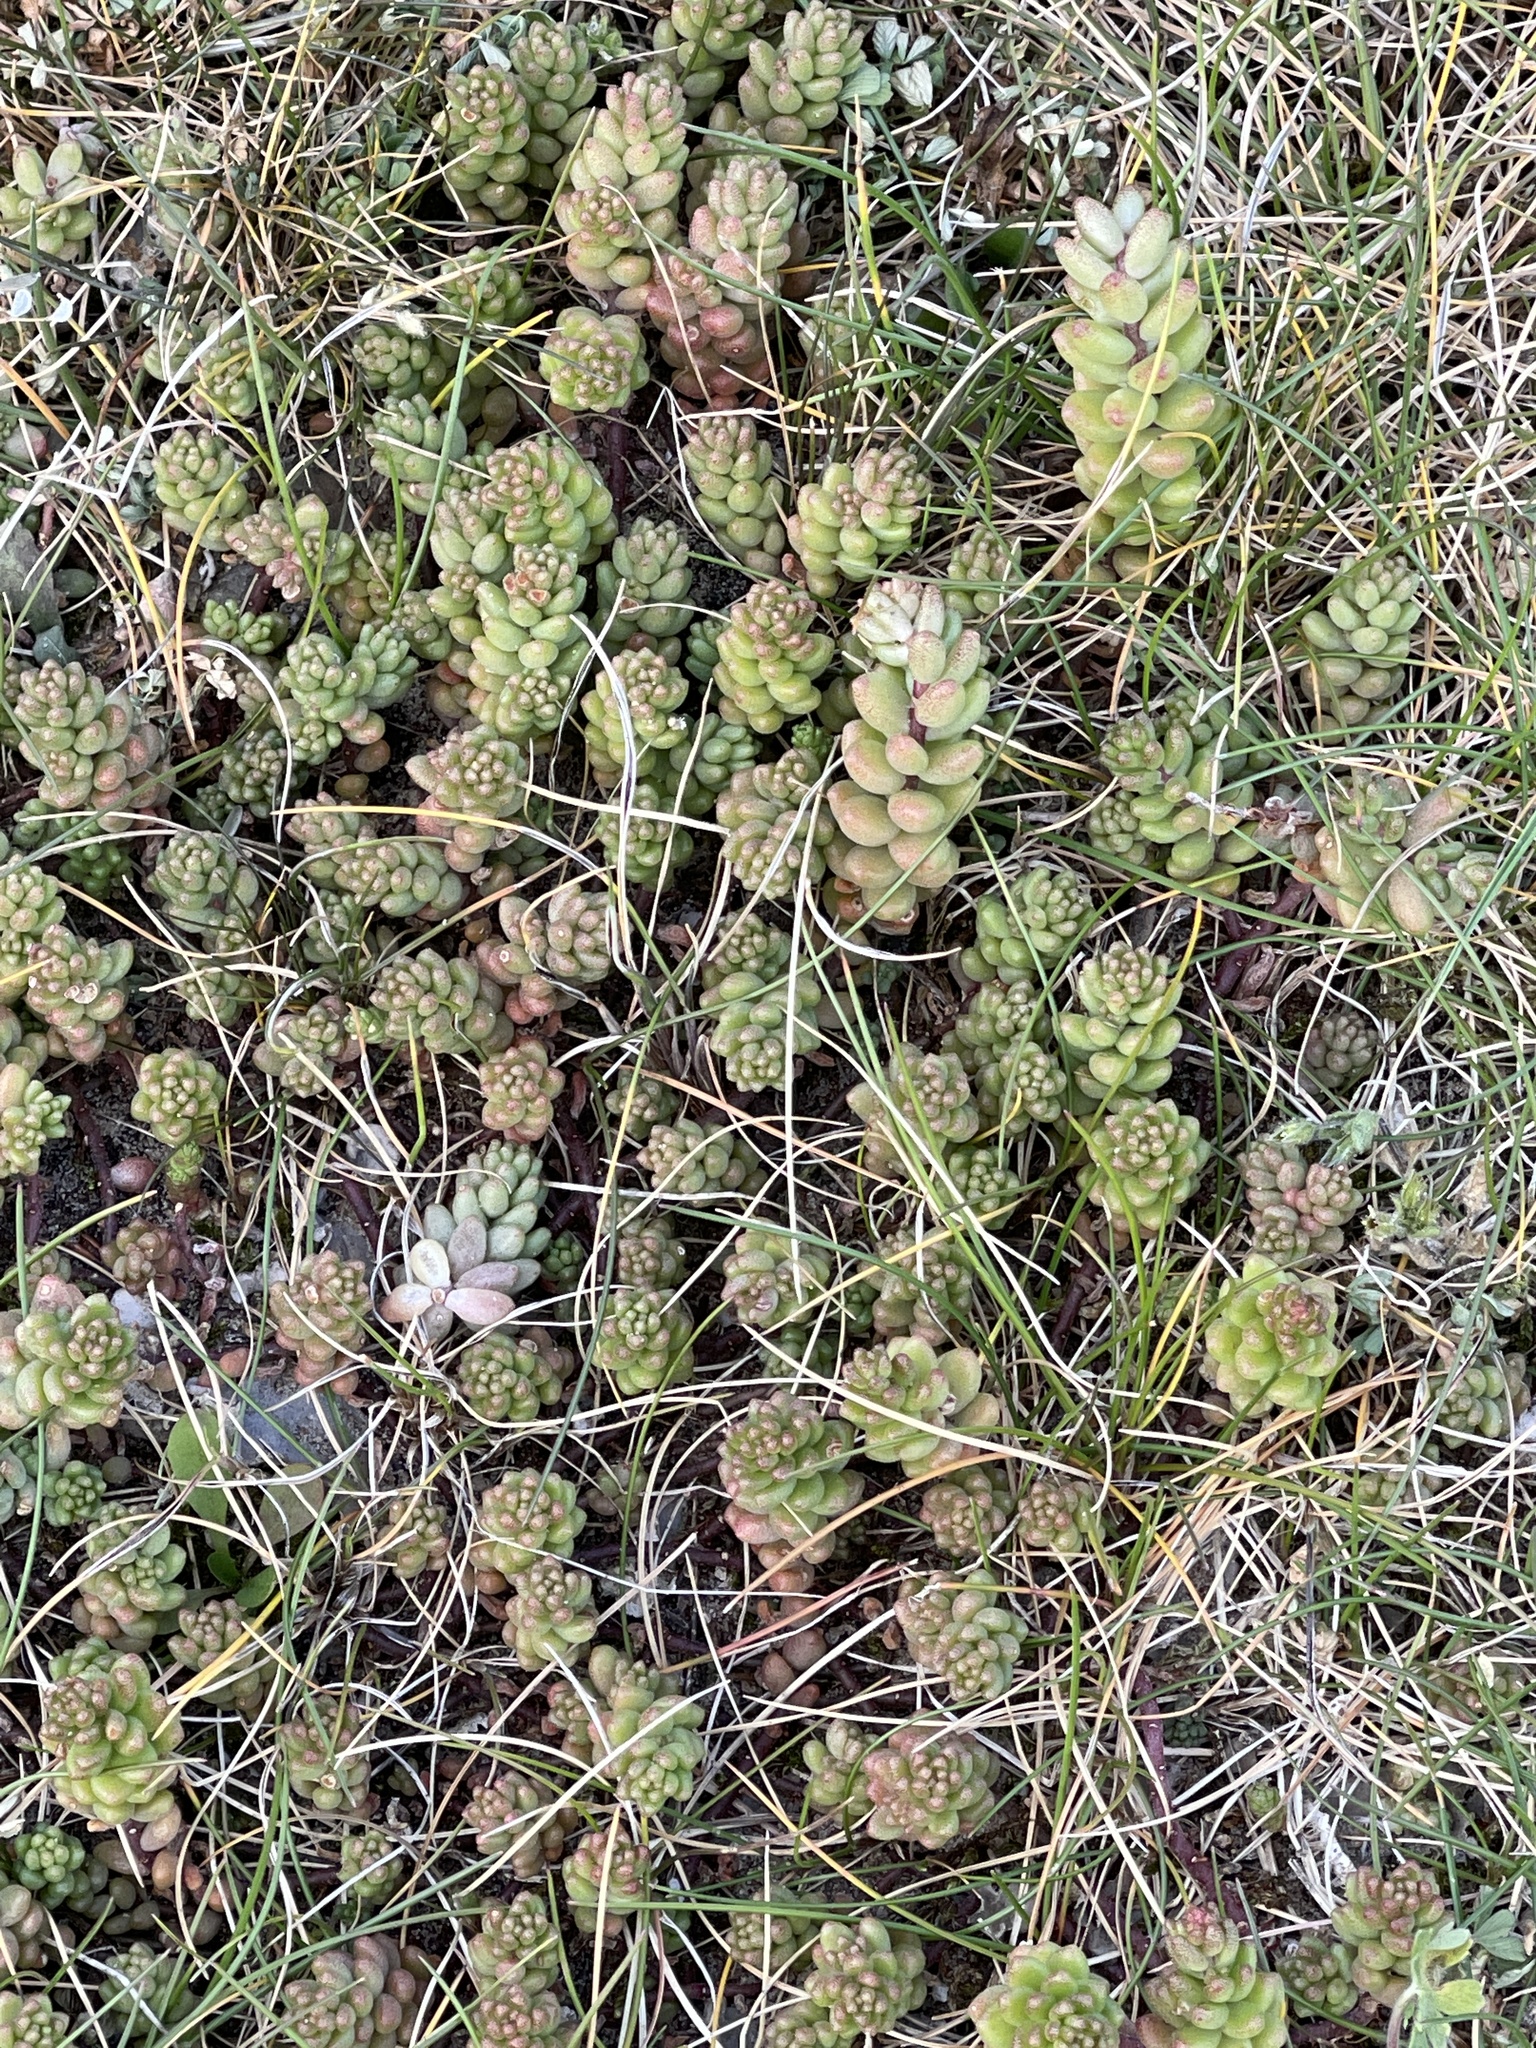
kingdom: Plantae
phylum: Tracheophyta
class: Magnoliopsida
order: Saxifragales
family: Crassulaceae
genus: Sedum
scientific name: Sedum album
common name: White stonecrop
